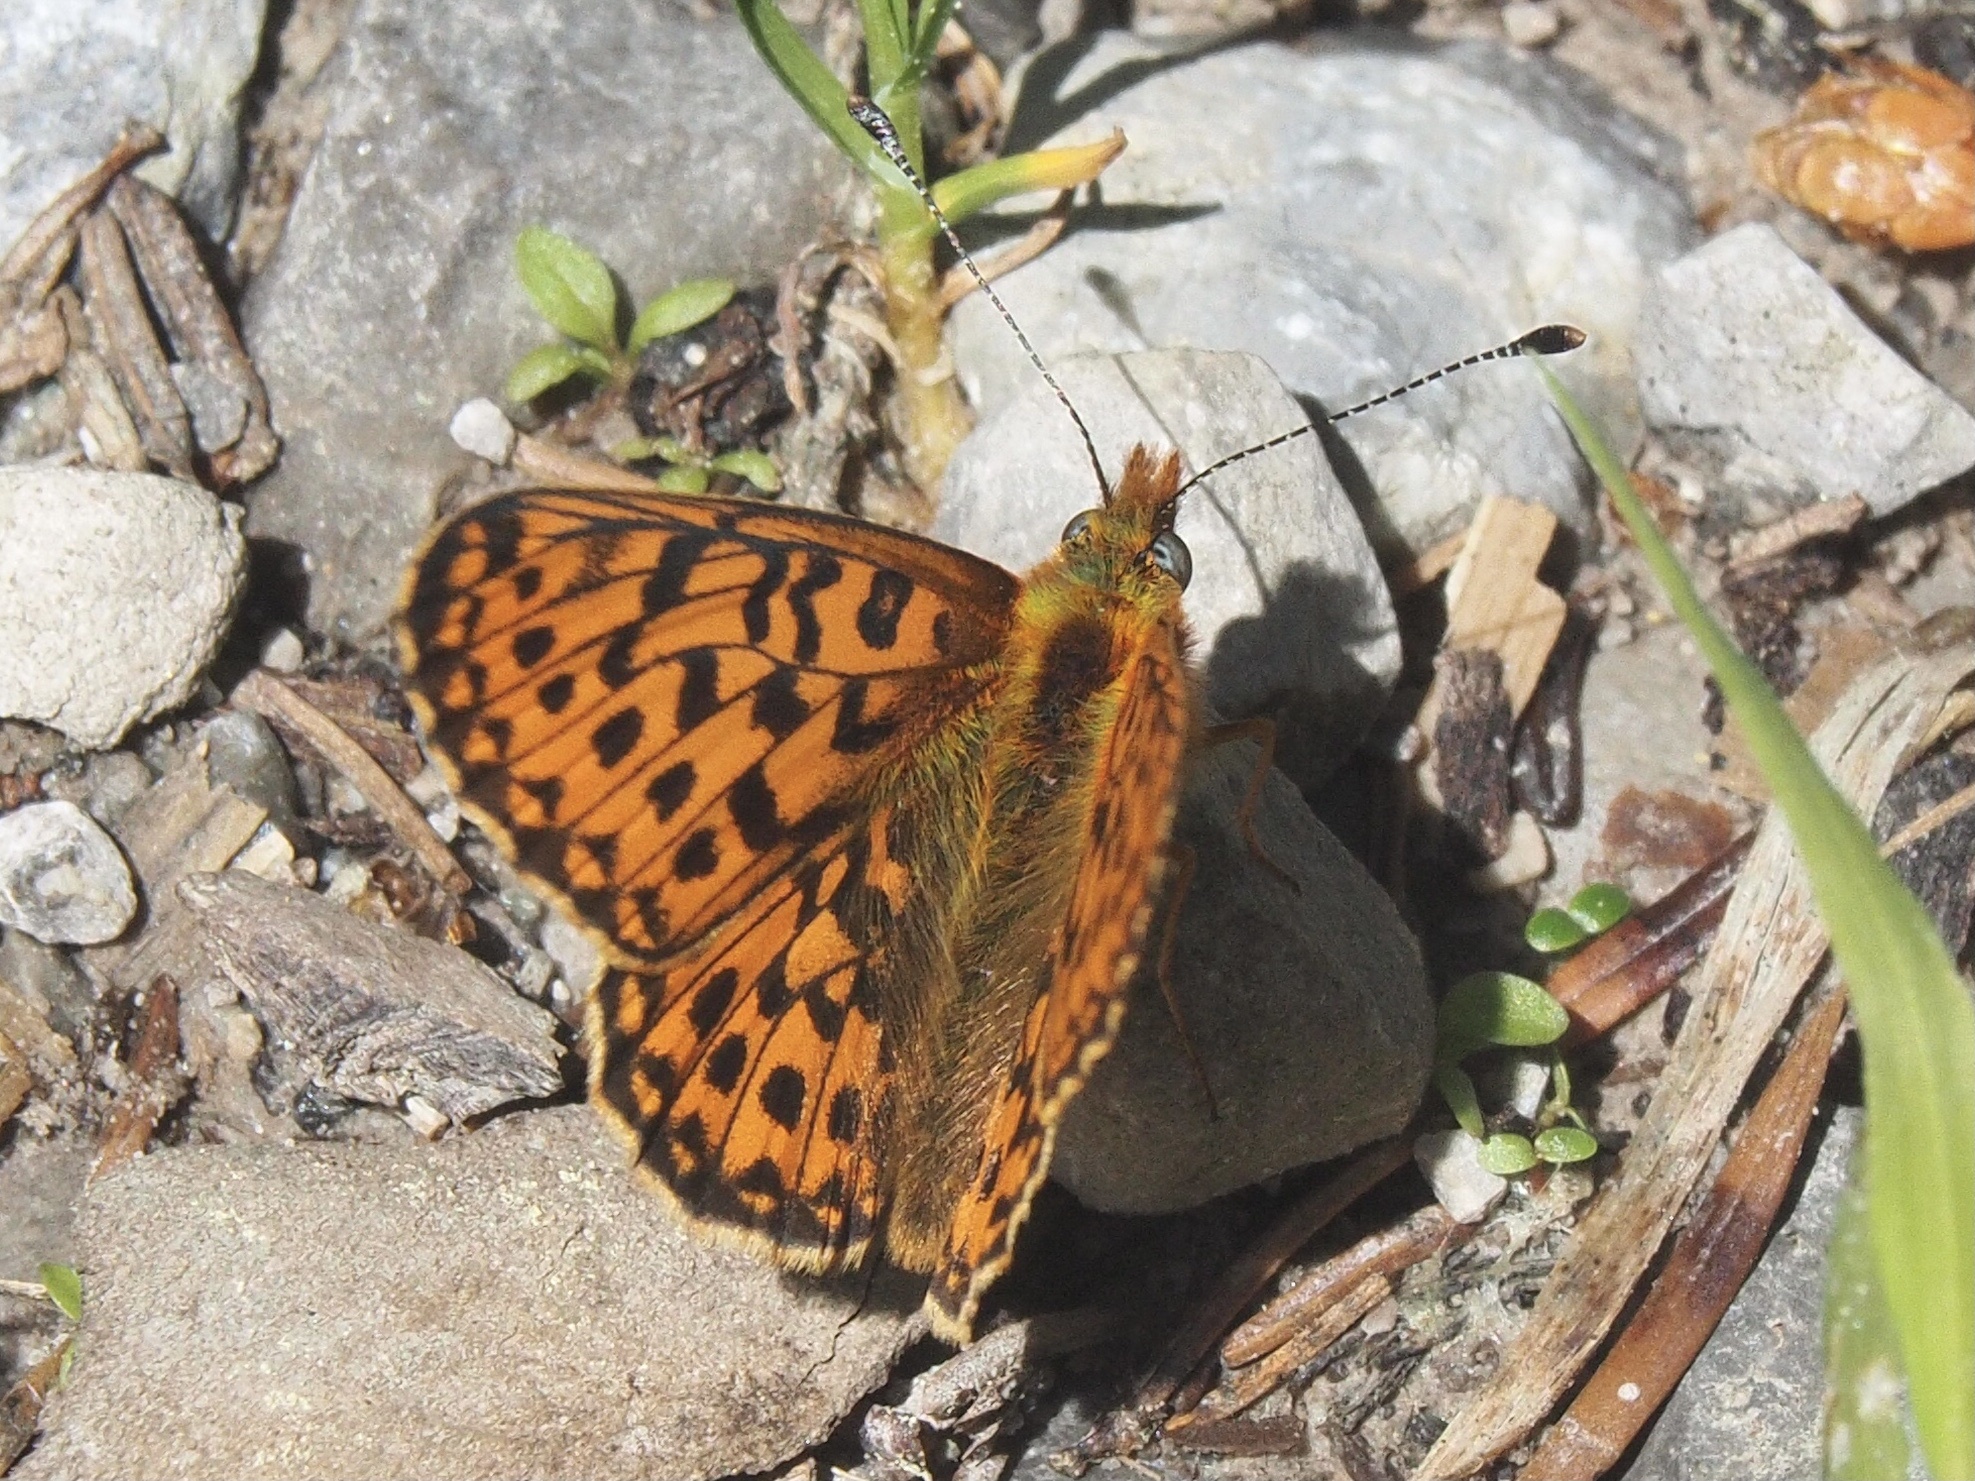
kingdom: Animalia
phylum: Arthropoda
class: Insecta
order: Lepidoptera
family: Nymphalidae
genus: Clossiana
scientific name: Clossiana euphrosyne
